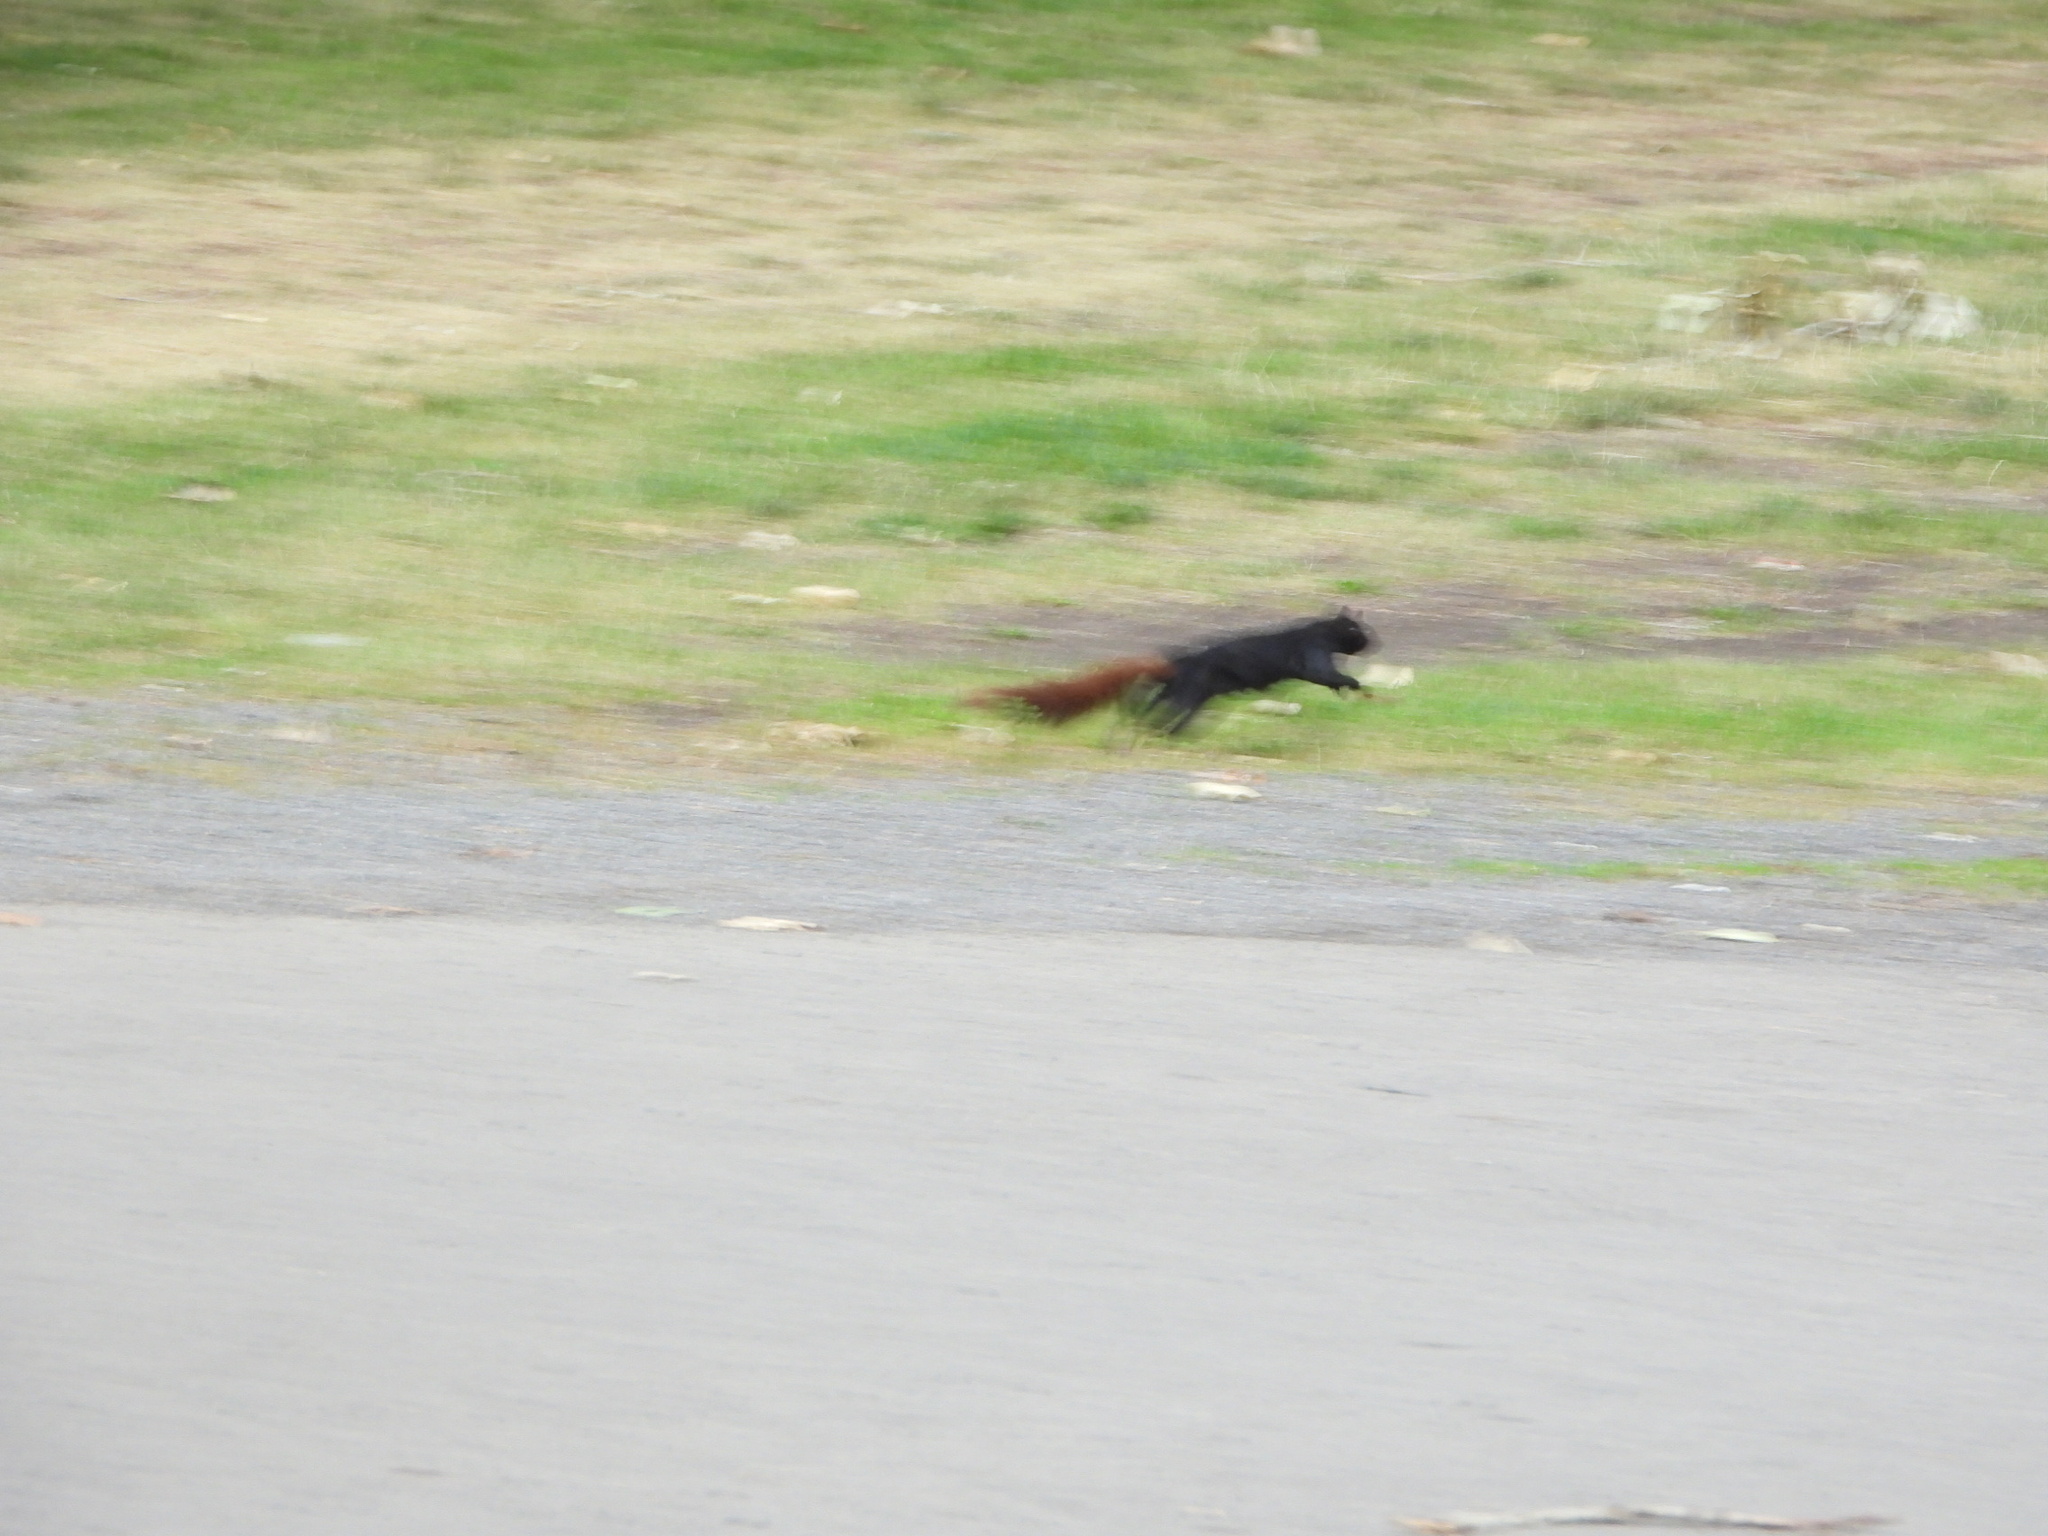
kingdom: Animalia
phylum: Chordata
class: Mammalia
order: Rodentia
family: Sciuridae
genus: Sciurus
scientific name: Sciurus carolinensis
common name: Eastern gray squirrel
